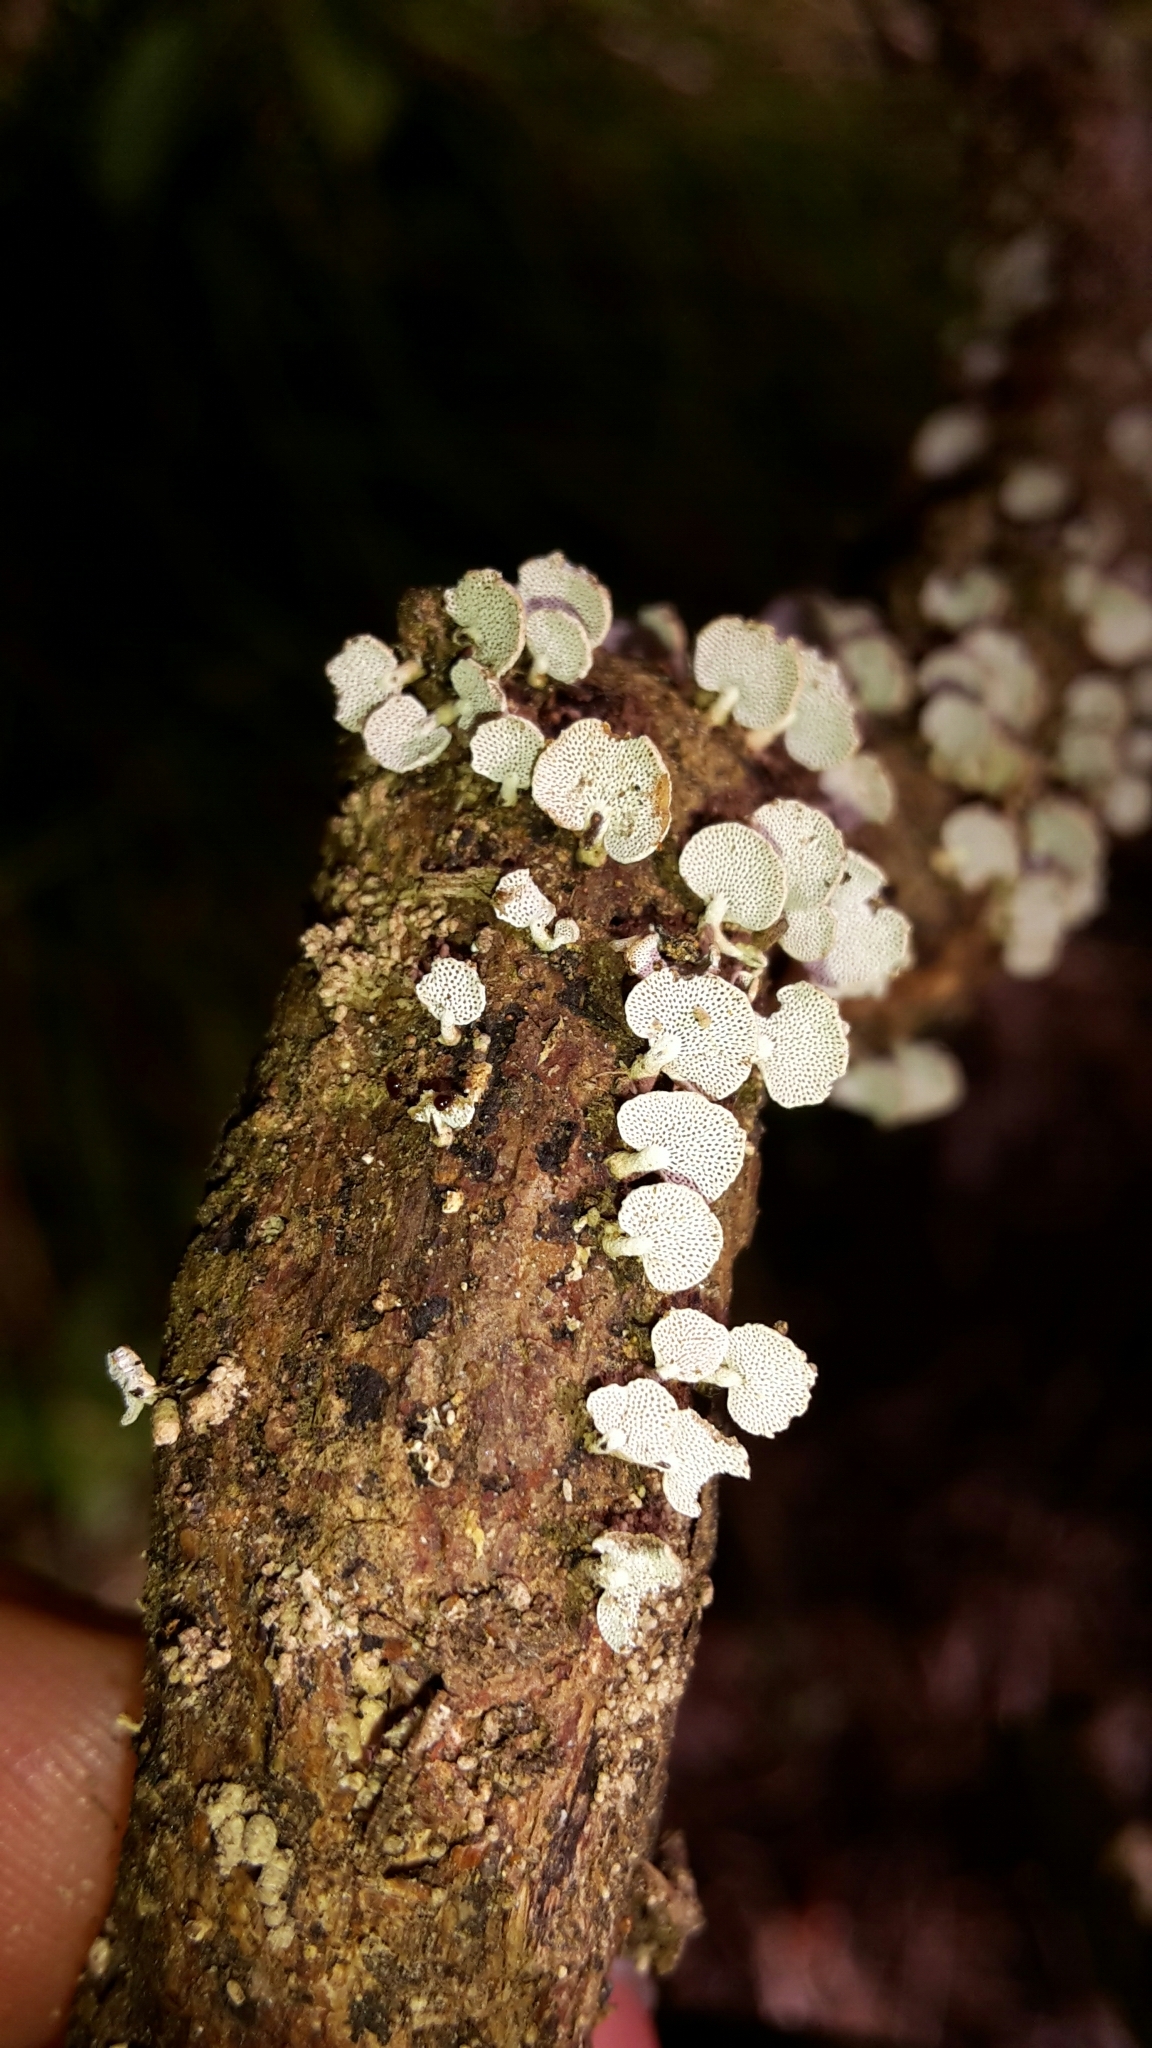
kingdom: Fungi
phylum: Basidiomycota
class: Agaricomycetes
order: Agaricales
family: Mycenaceae
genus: Panellus
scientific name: Panellus luxfilamentus
